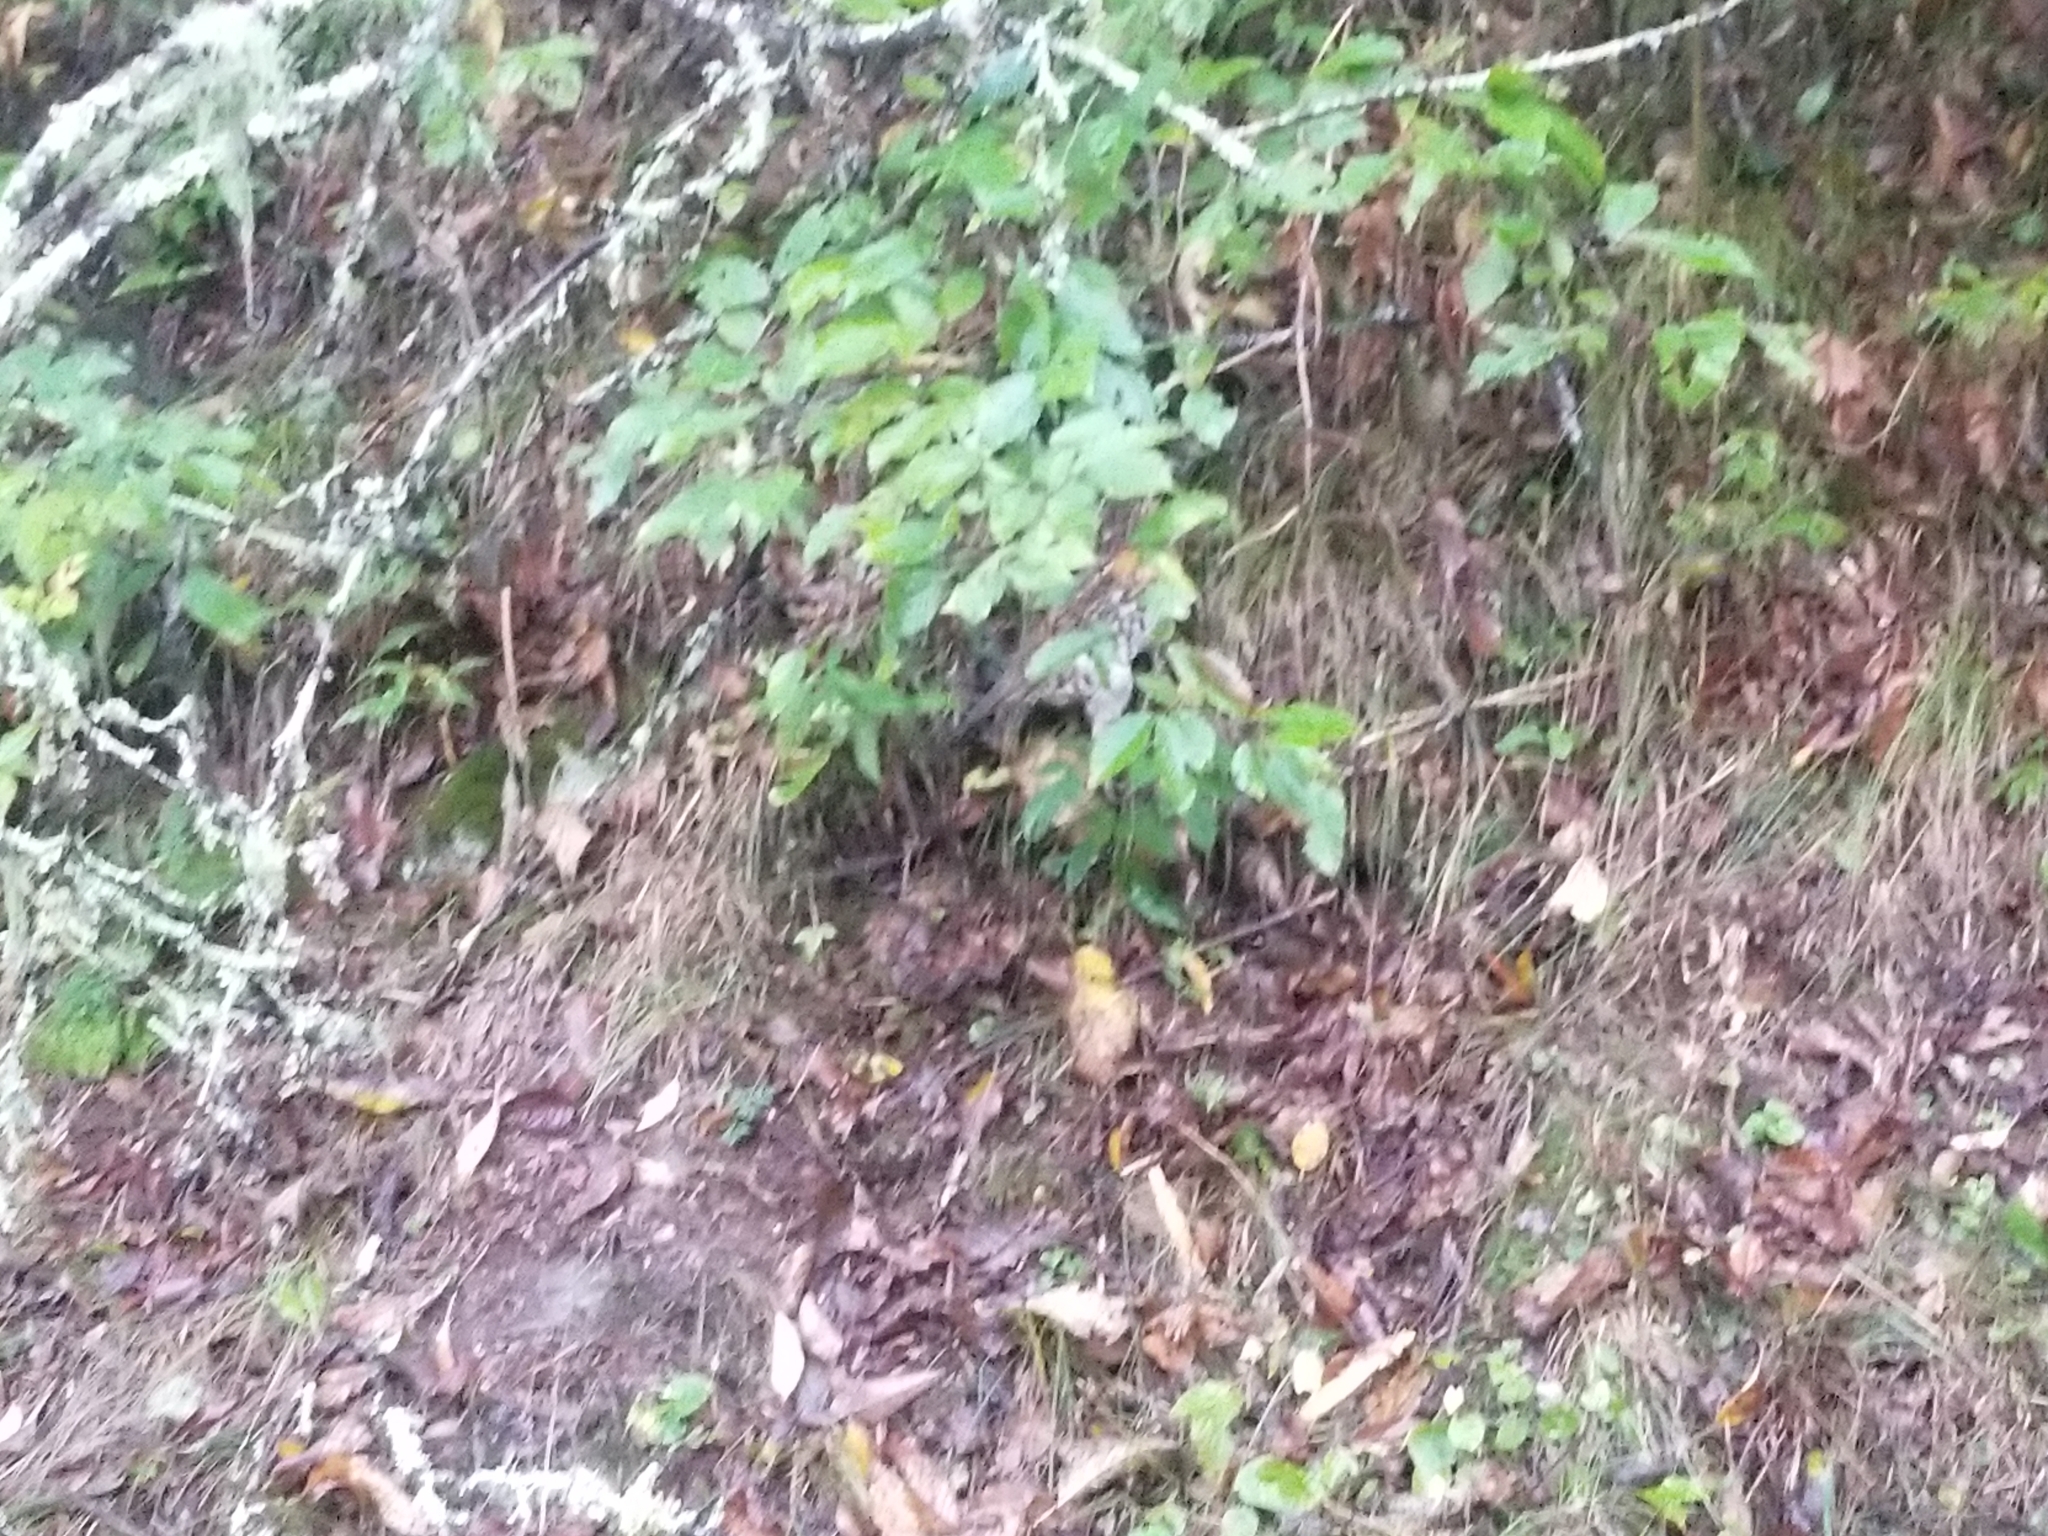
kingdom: Animalia
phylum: Chordata
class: Aves
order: Galliformes
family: Phasianidae
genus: Bonasa
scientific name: Bonasa umbellus
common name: Ruffed grouse
